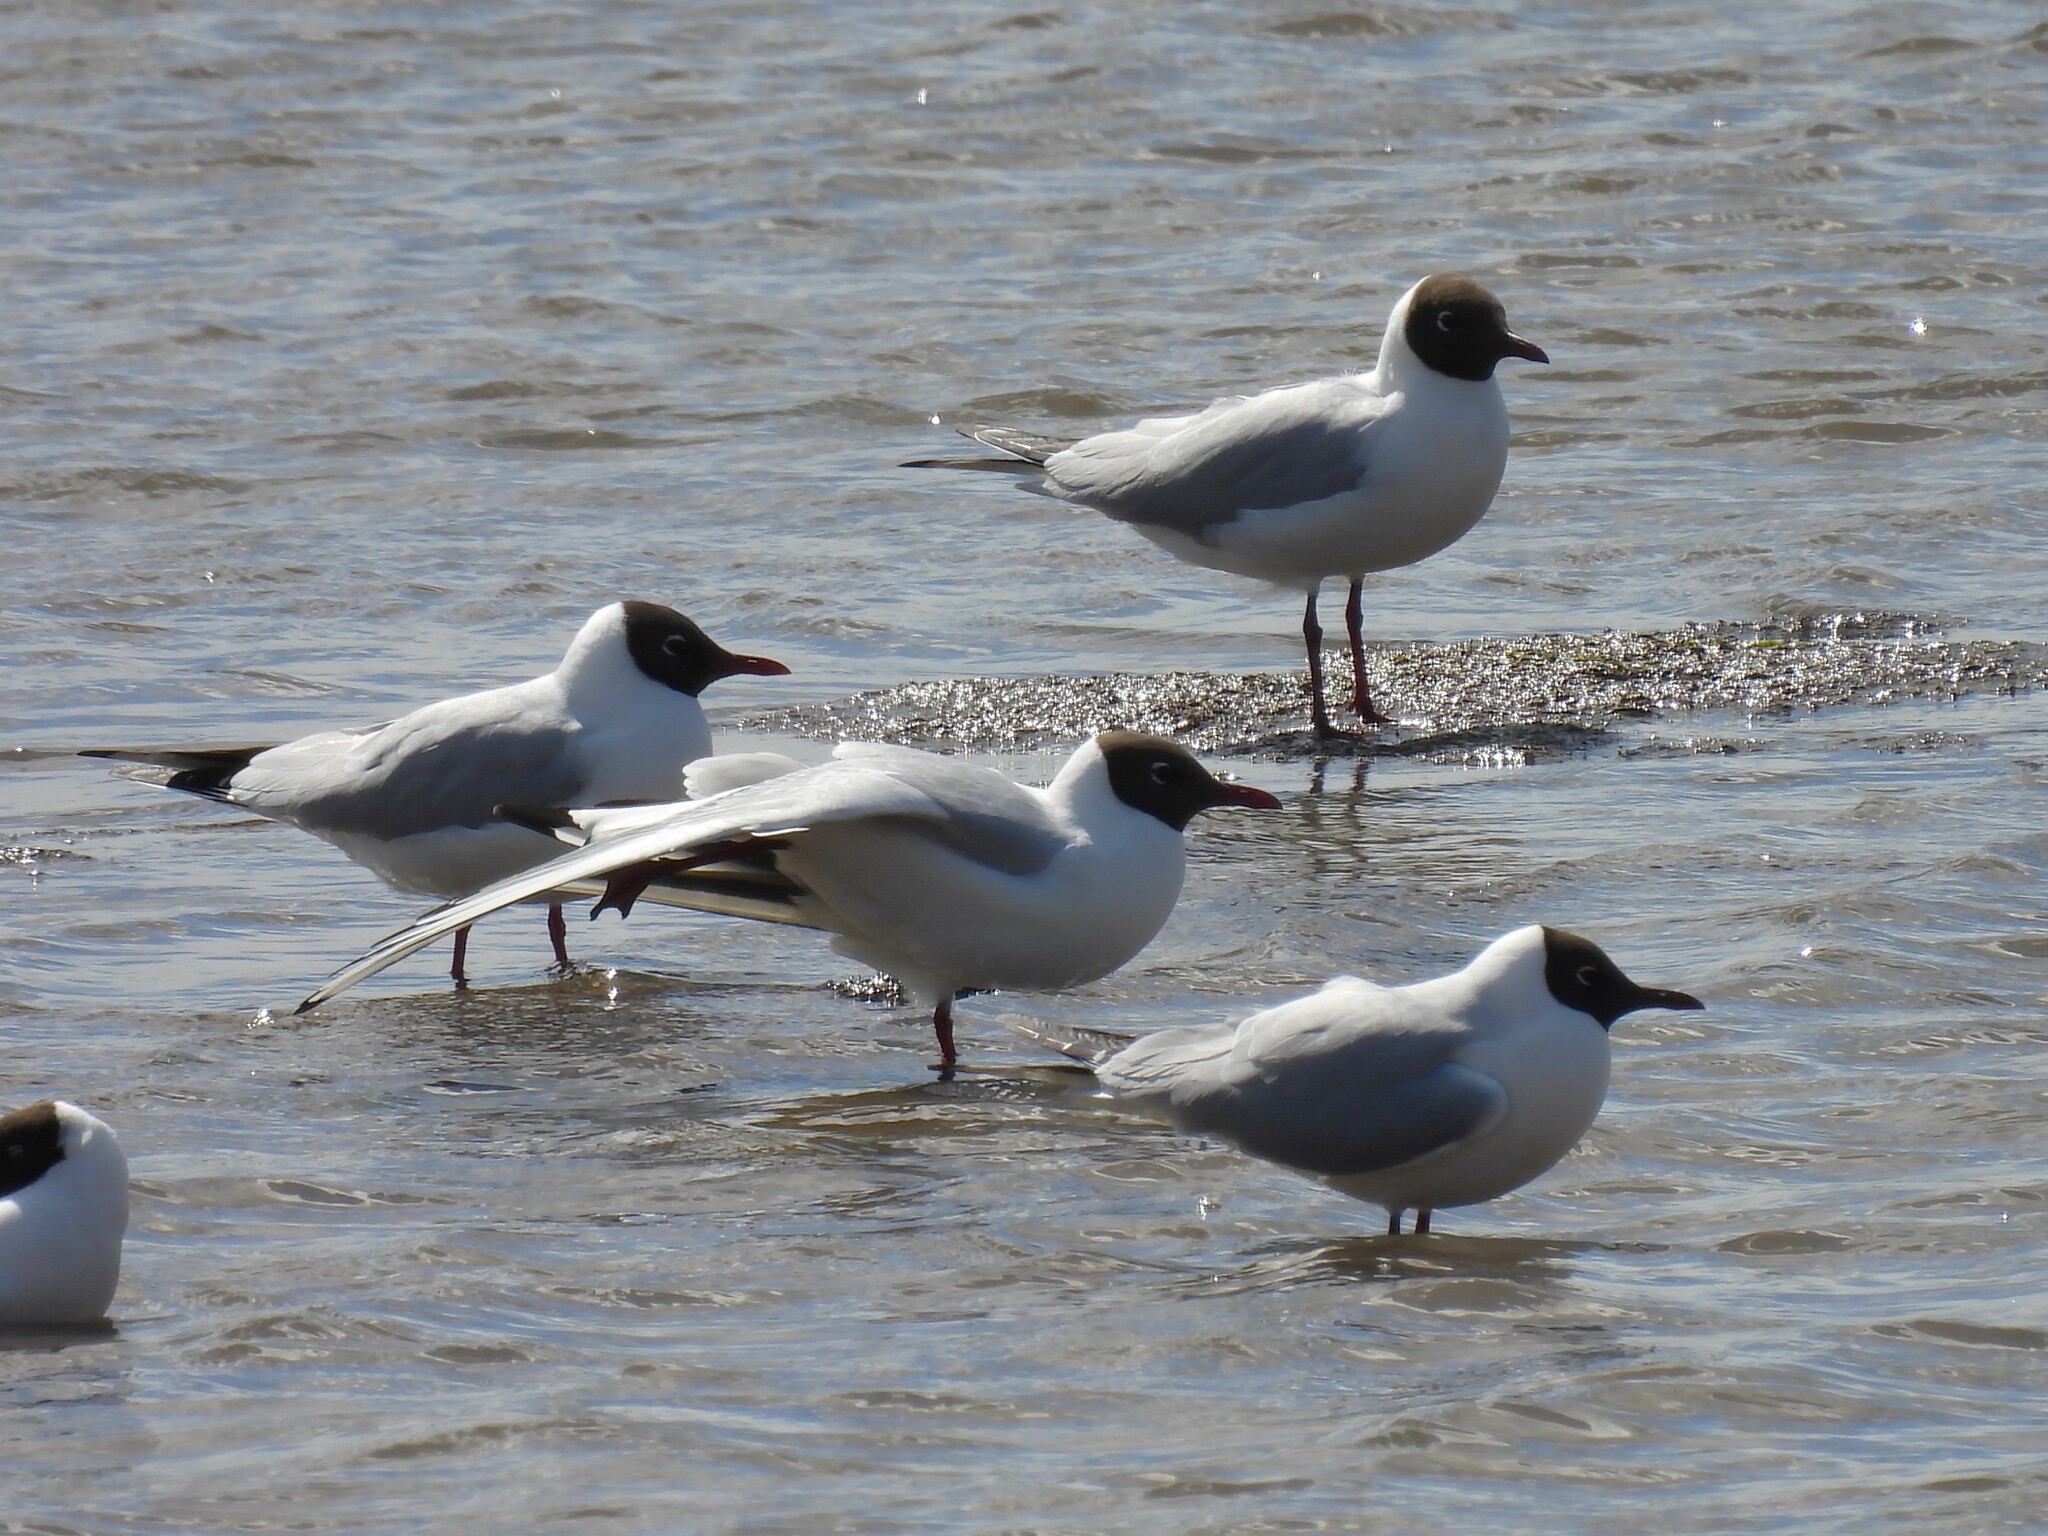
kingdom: Animalia
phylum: Chordata
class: Aves
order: Charadriiformes
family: Laridae
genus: Chroicocephalus
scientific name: Chroicocephalus ridibundus
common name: Black-headed gull
